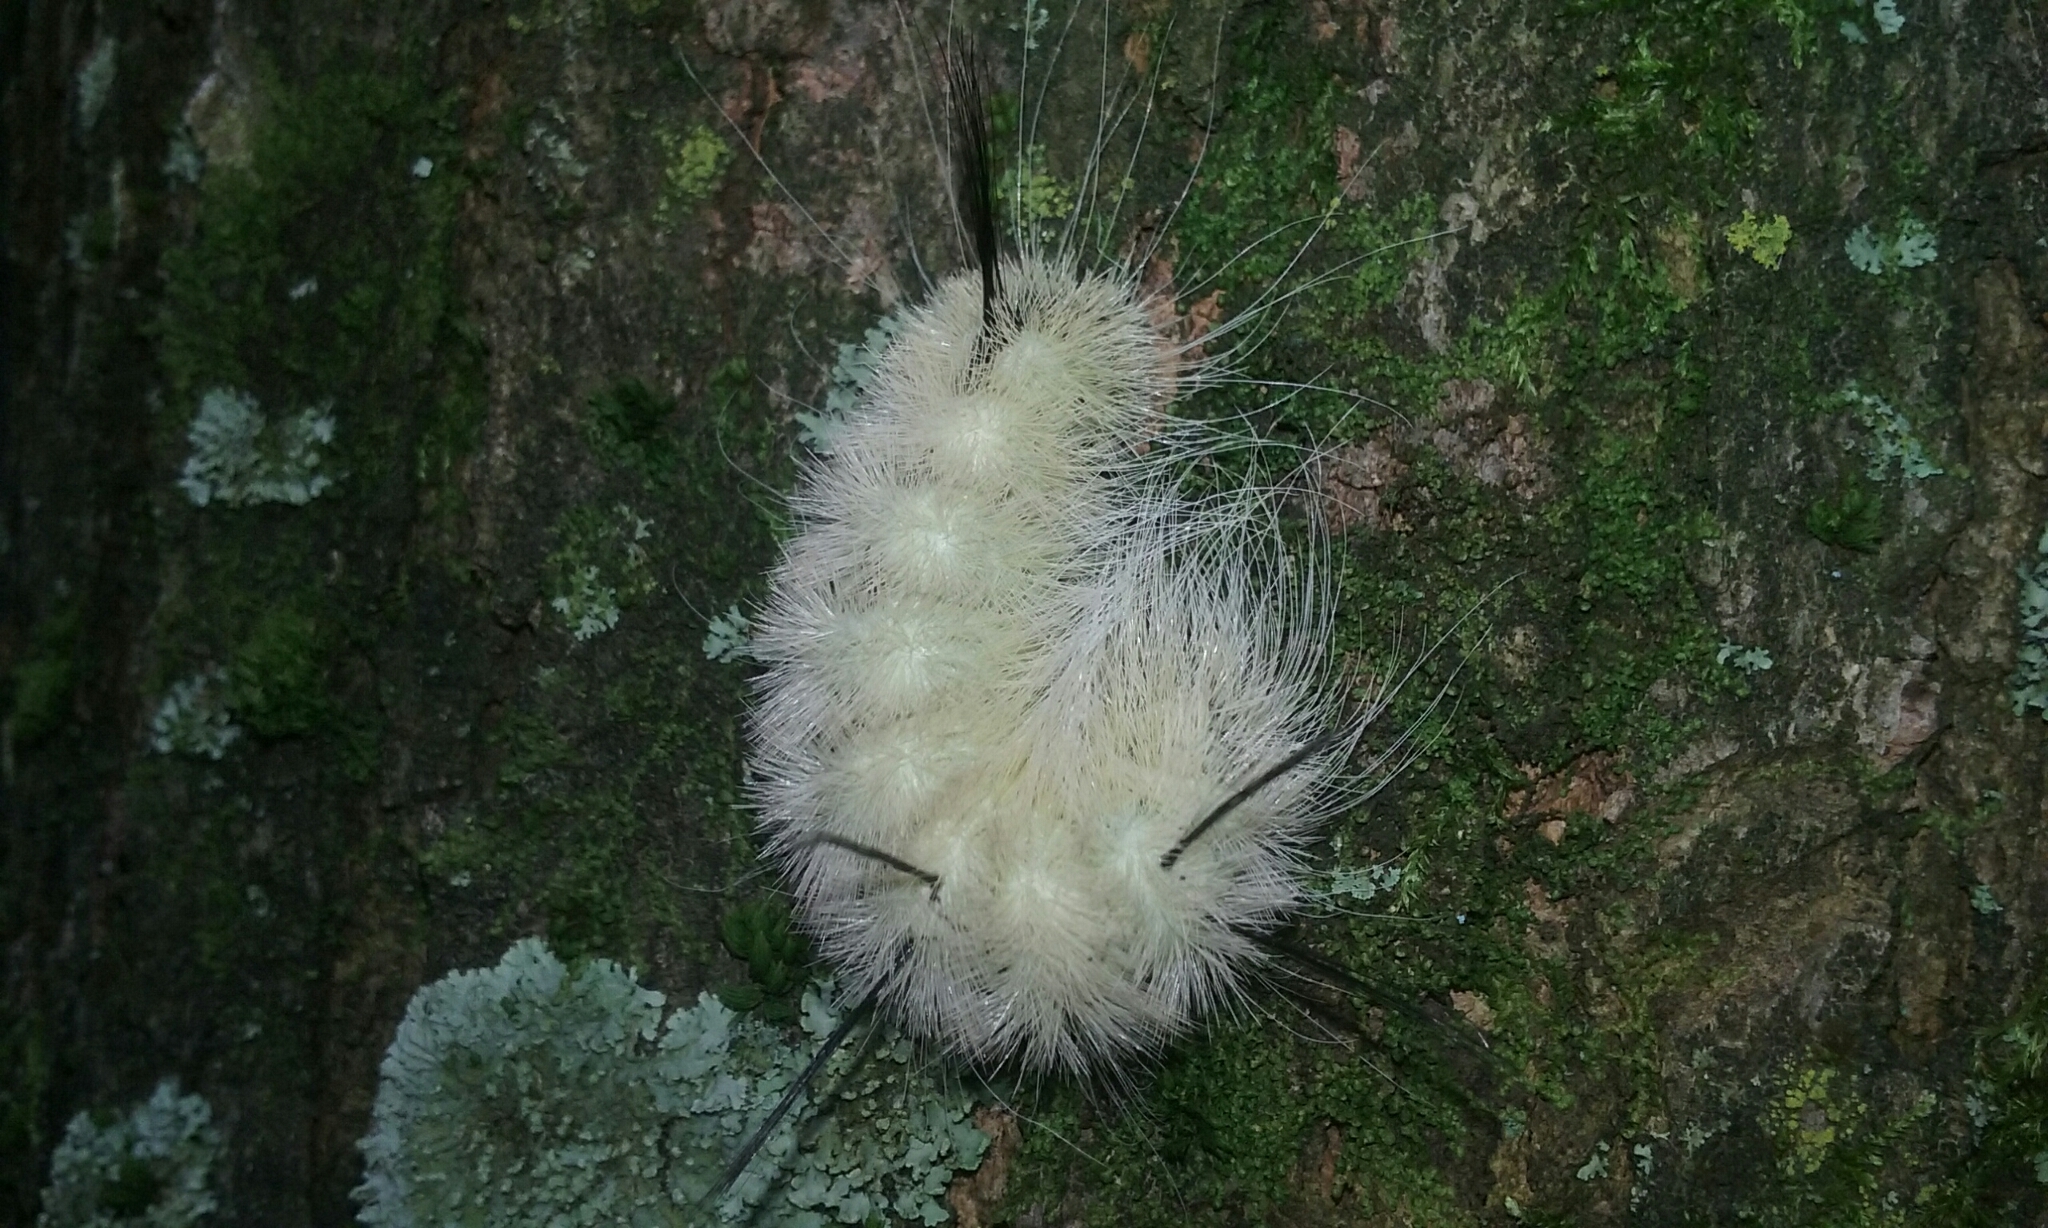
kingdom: Animalia
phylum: Arthropoda
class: Insecta
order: Lepidoptera
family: Noctuidae
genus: Acronicta
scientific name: Acronicta americana
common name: American dagger
